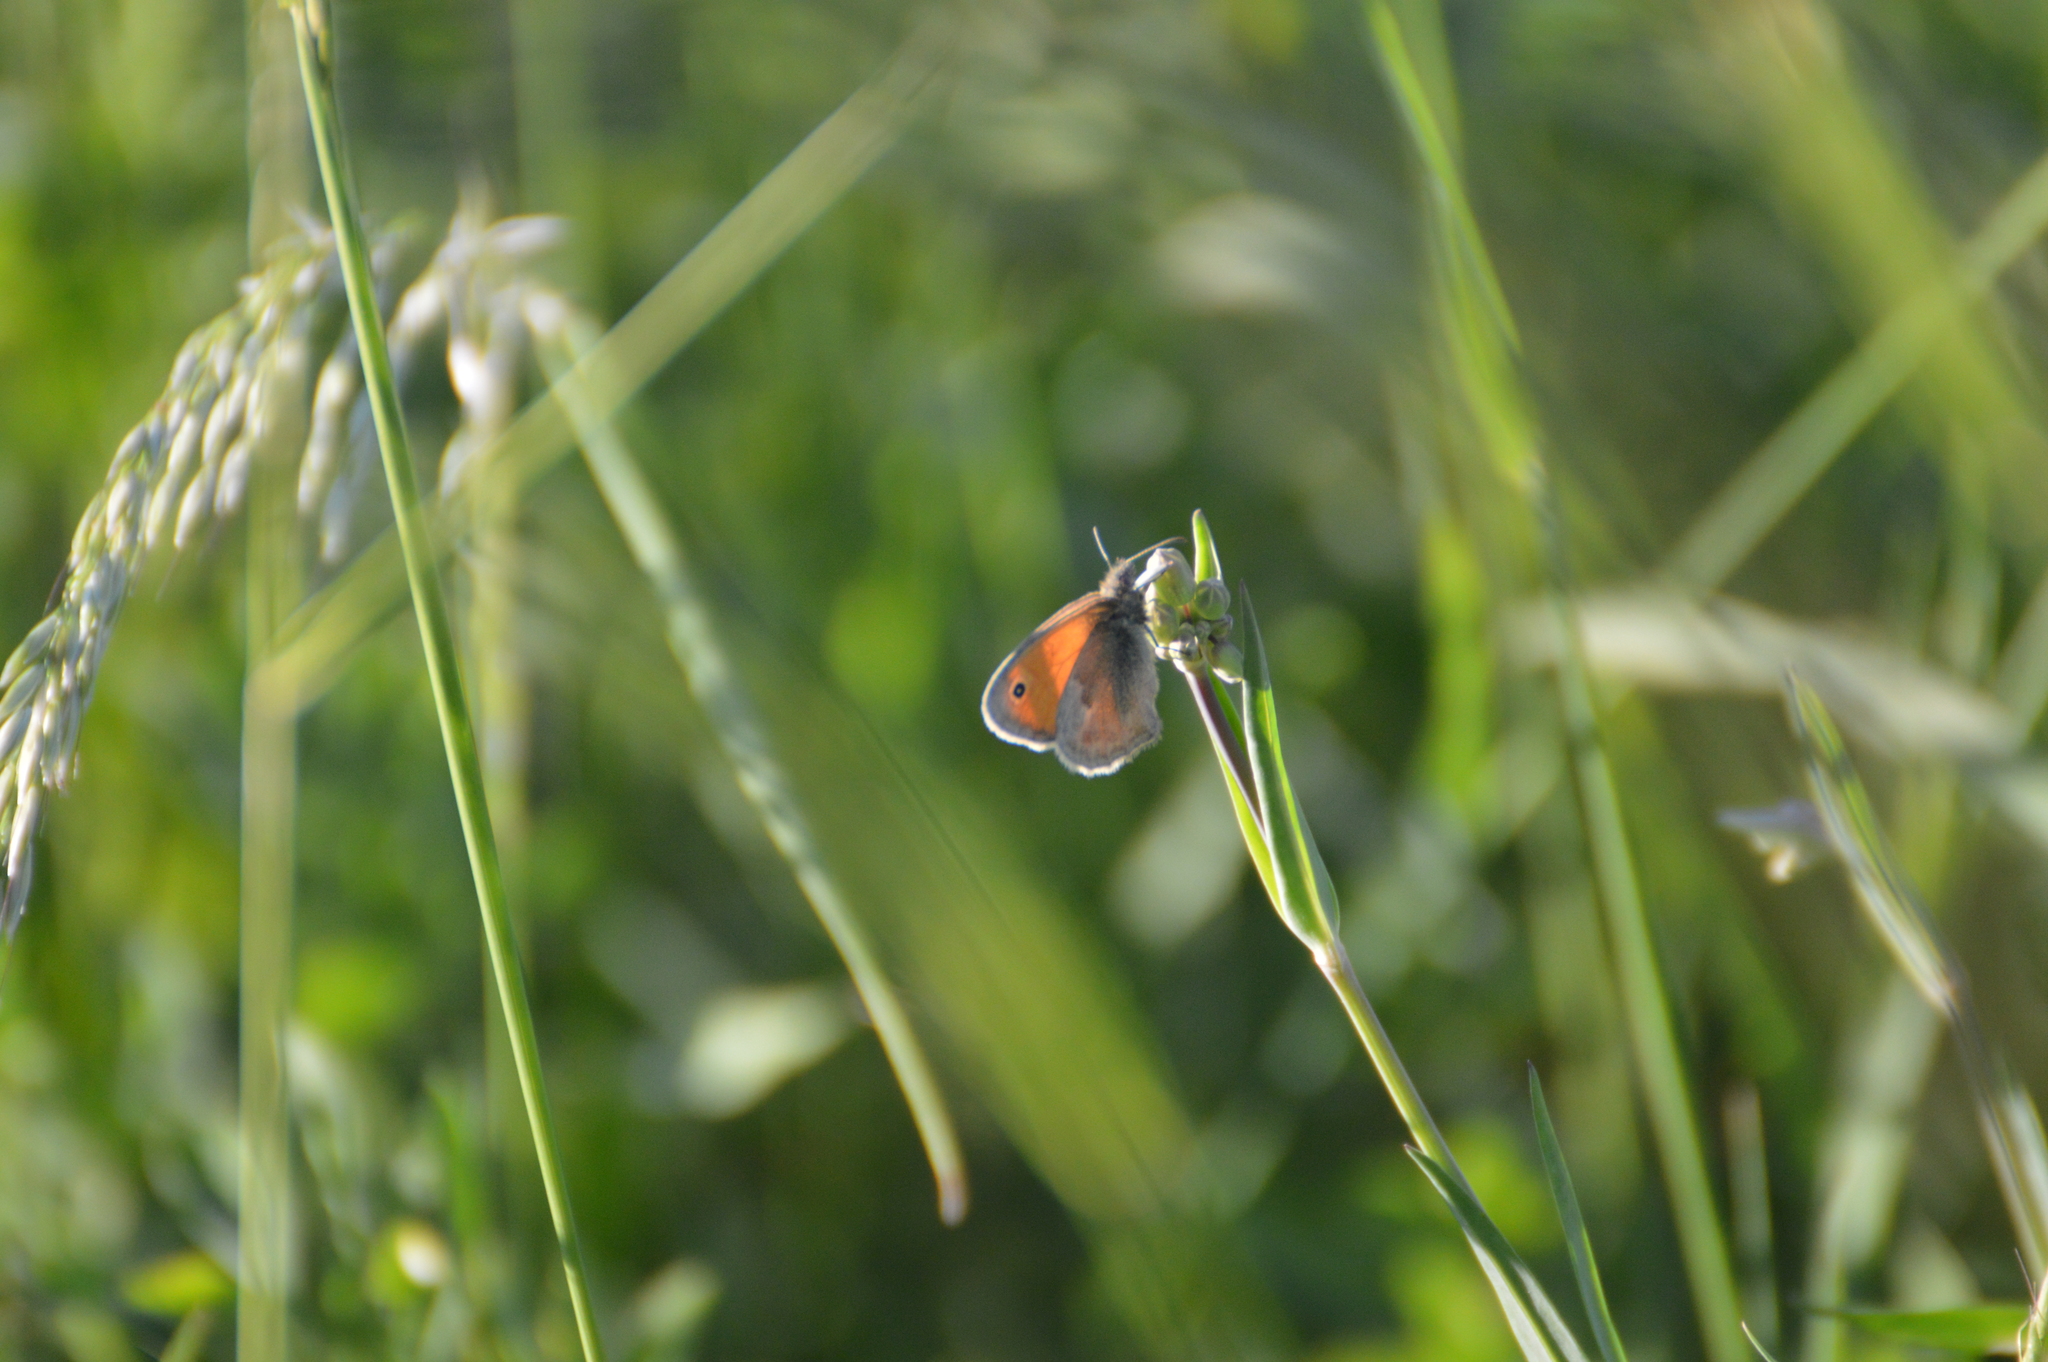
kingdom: Animalia
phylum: Arthropoda
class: Insecta
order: Lepidoptera
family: Nymphalidae
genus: Coenonympha
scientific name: Coenonympha pamphilus
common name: Small heath
